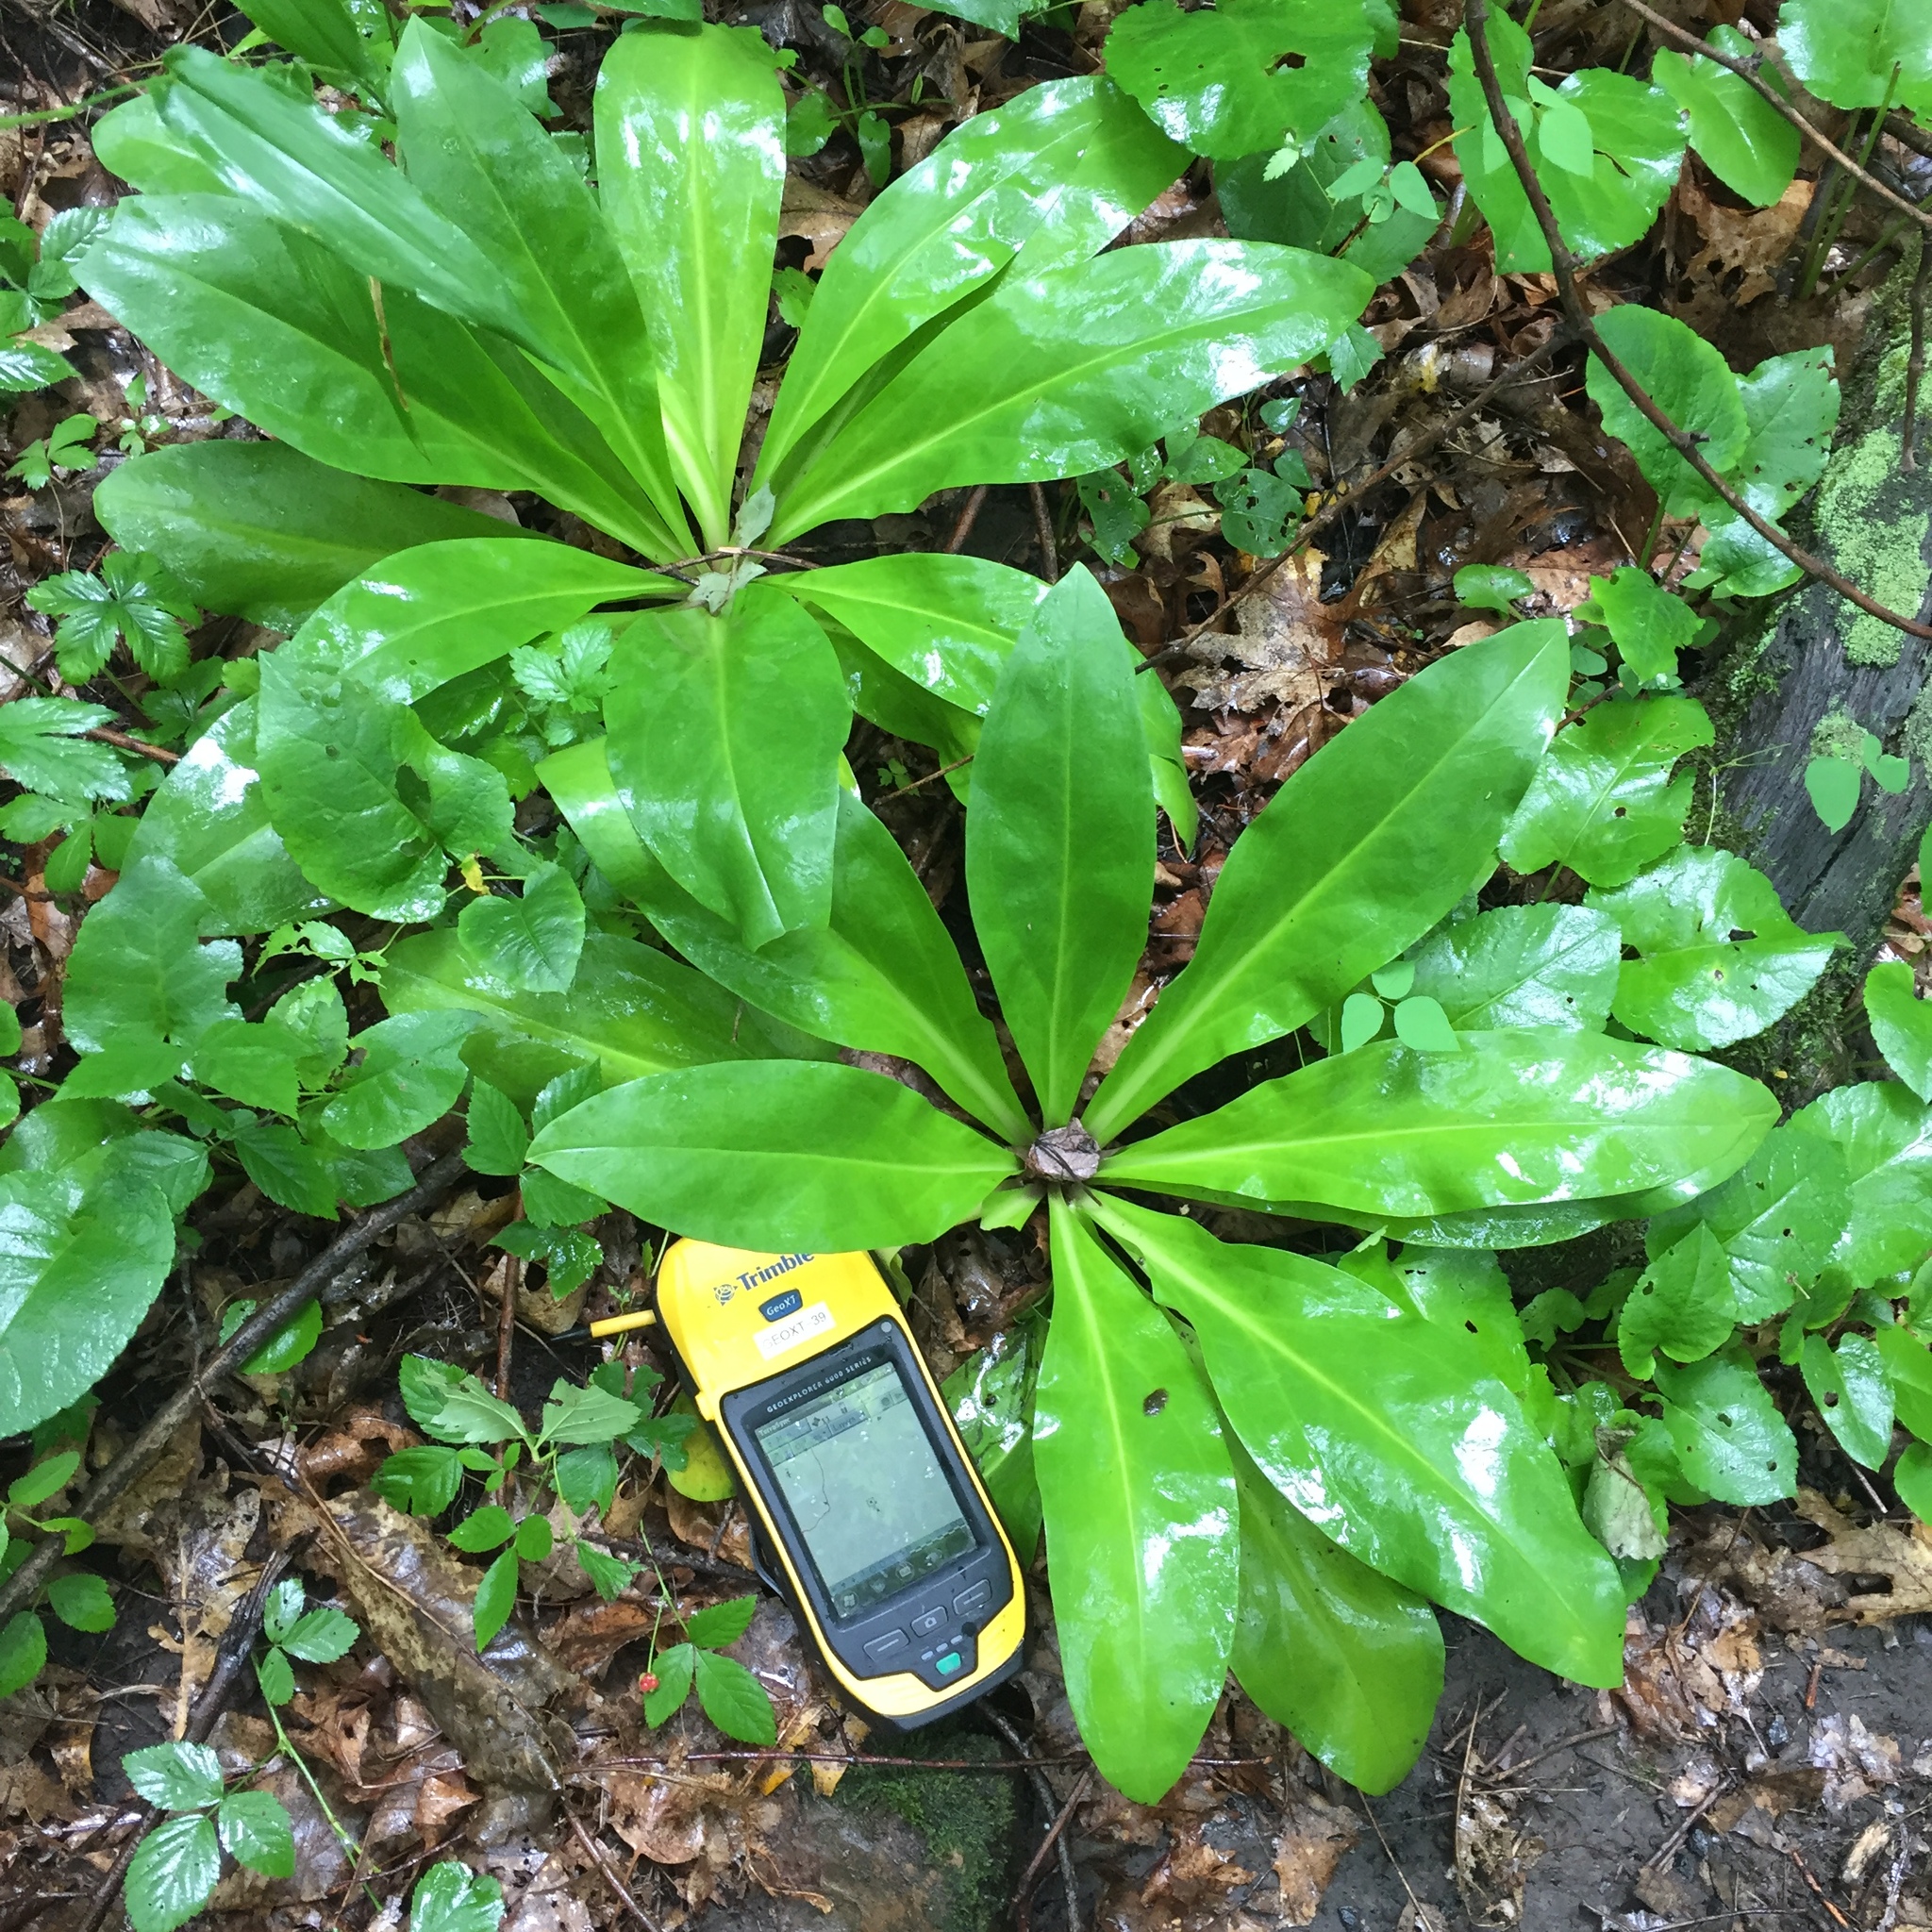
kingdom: Plantae
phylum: Tracheophyta
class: Magnoliopsida
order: Gentianales
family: Gentianaceae
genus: Frasera
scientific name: Frasera caroliniensis
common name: American columbo
